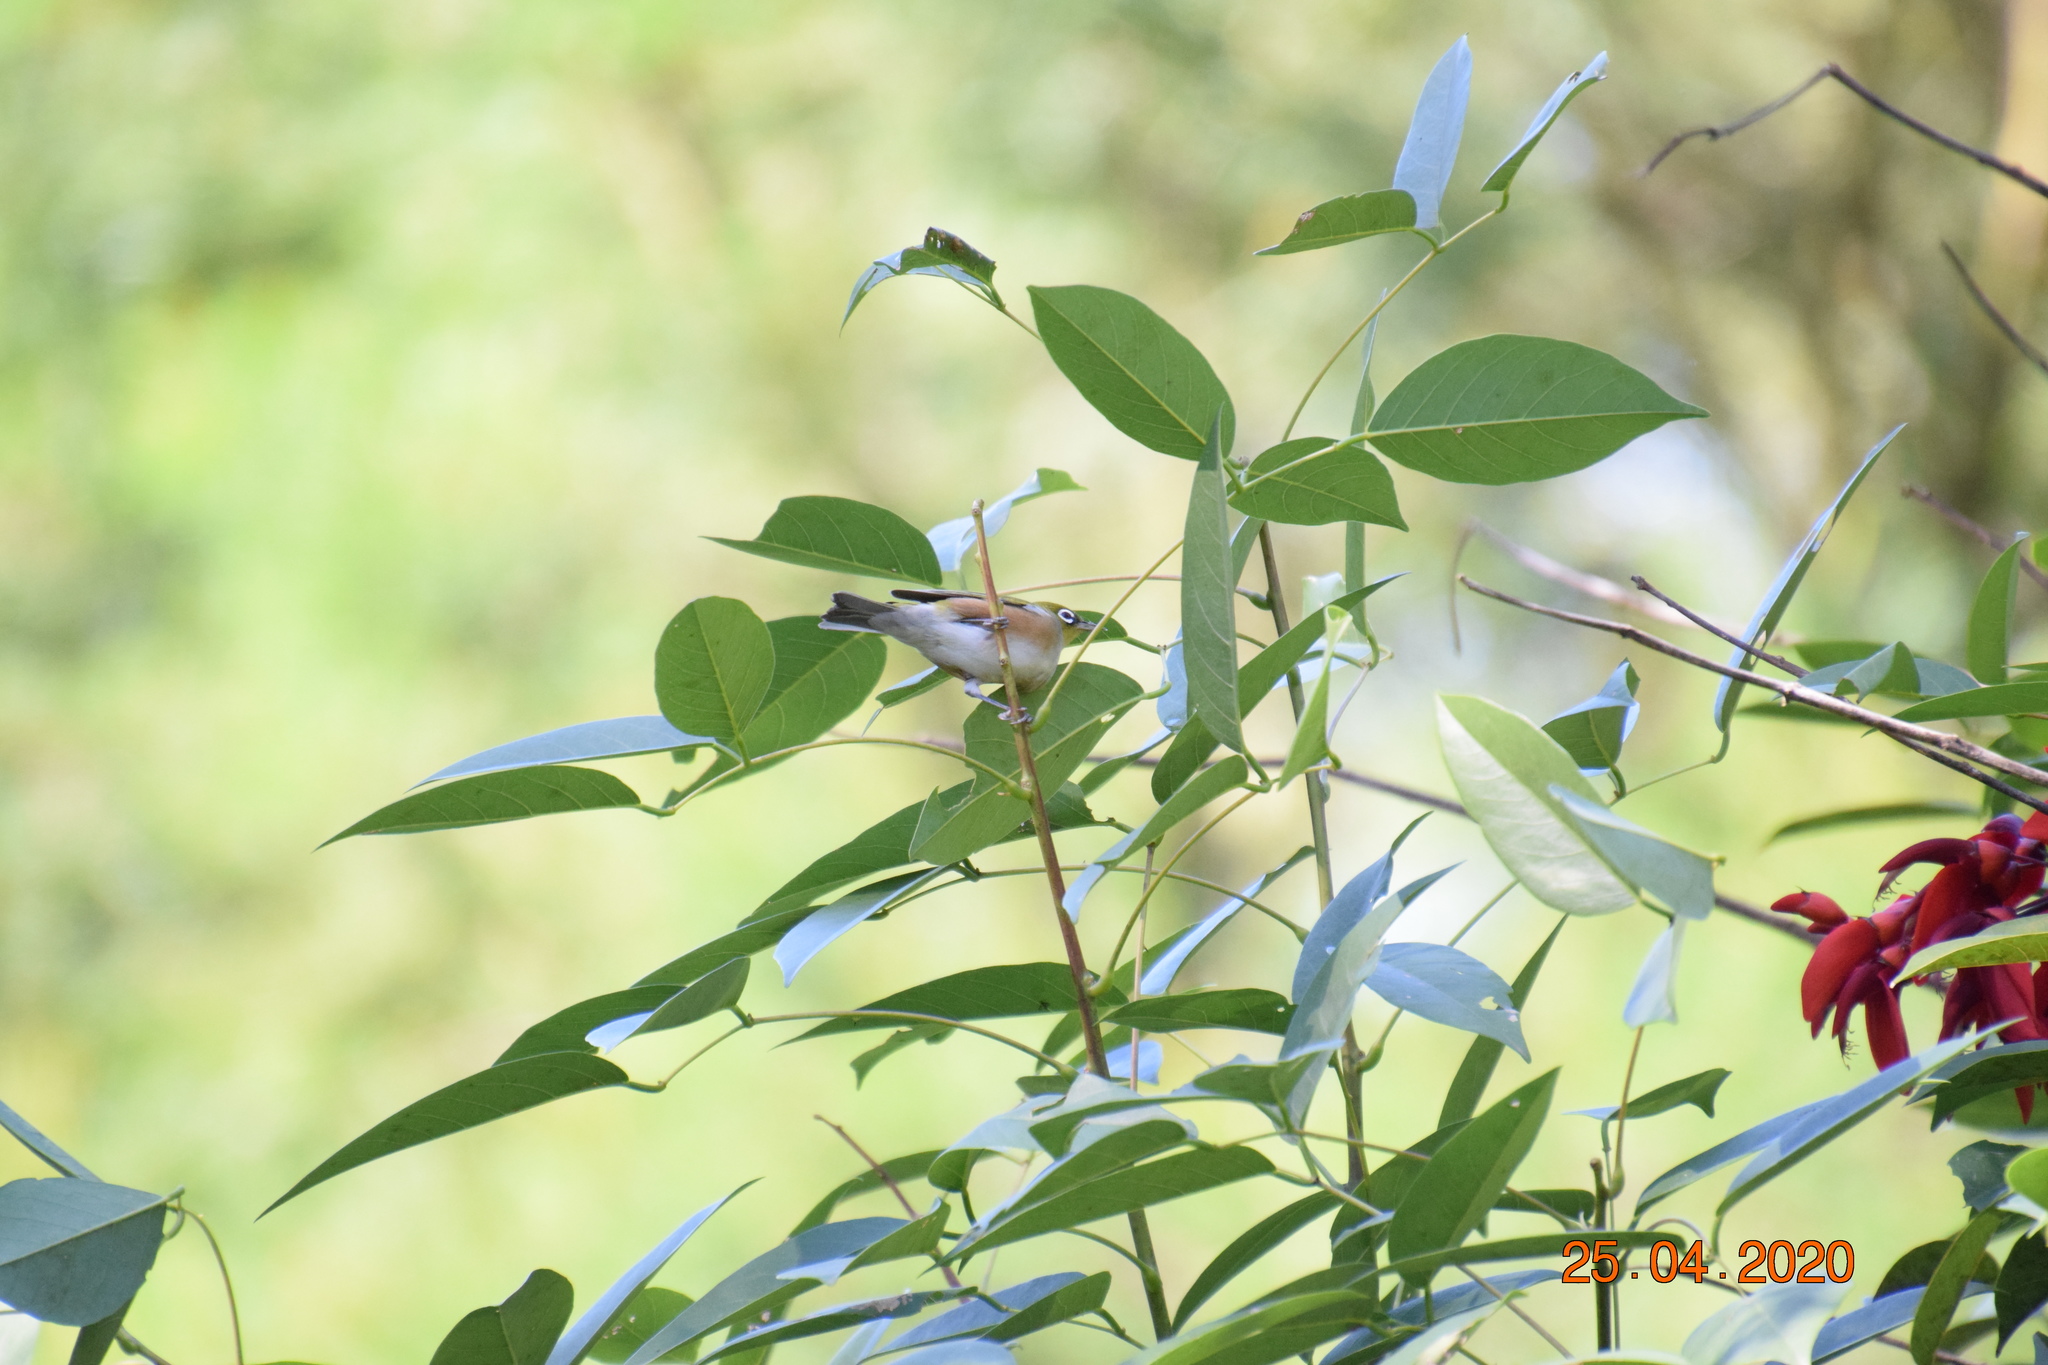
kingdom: Animalia
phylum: Chordata
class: Aves
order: Passeriformes
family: Zosteropidae
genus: Zosterops
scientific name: Zosterops lateralis
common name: Silvereye
